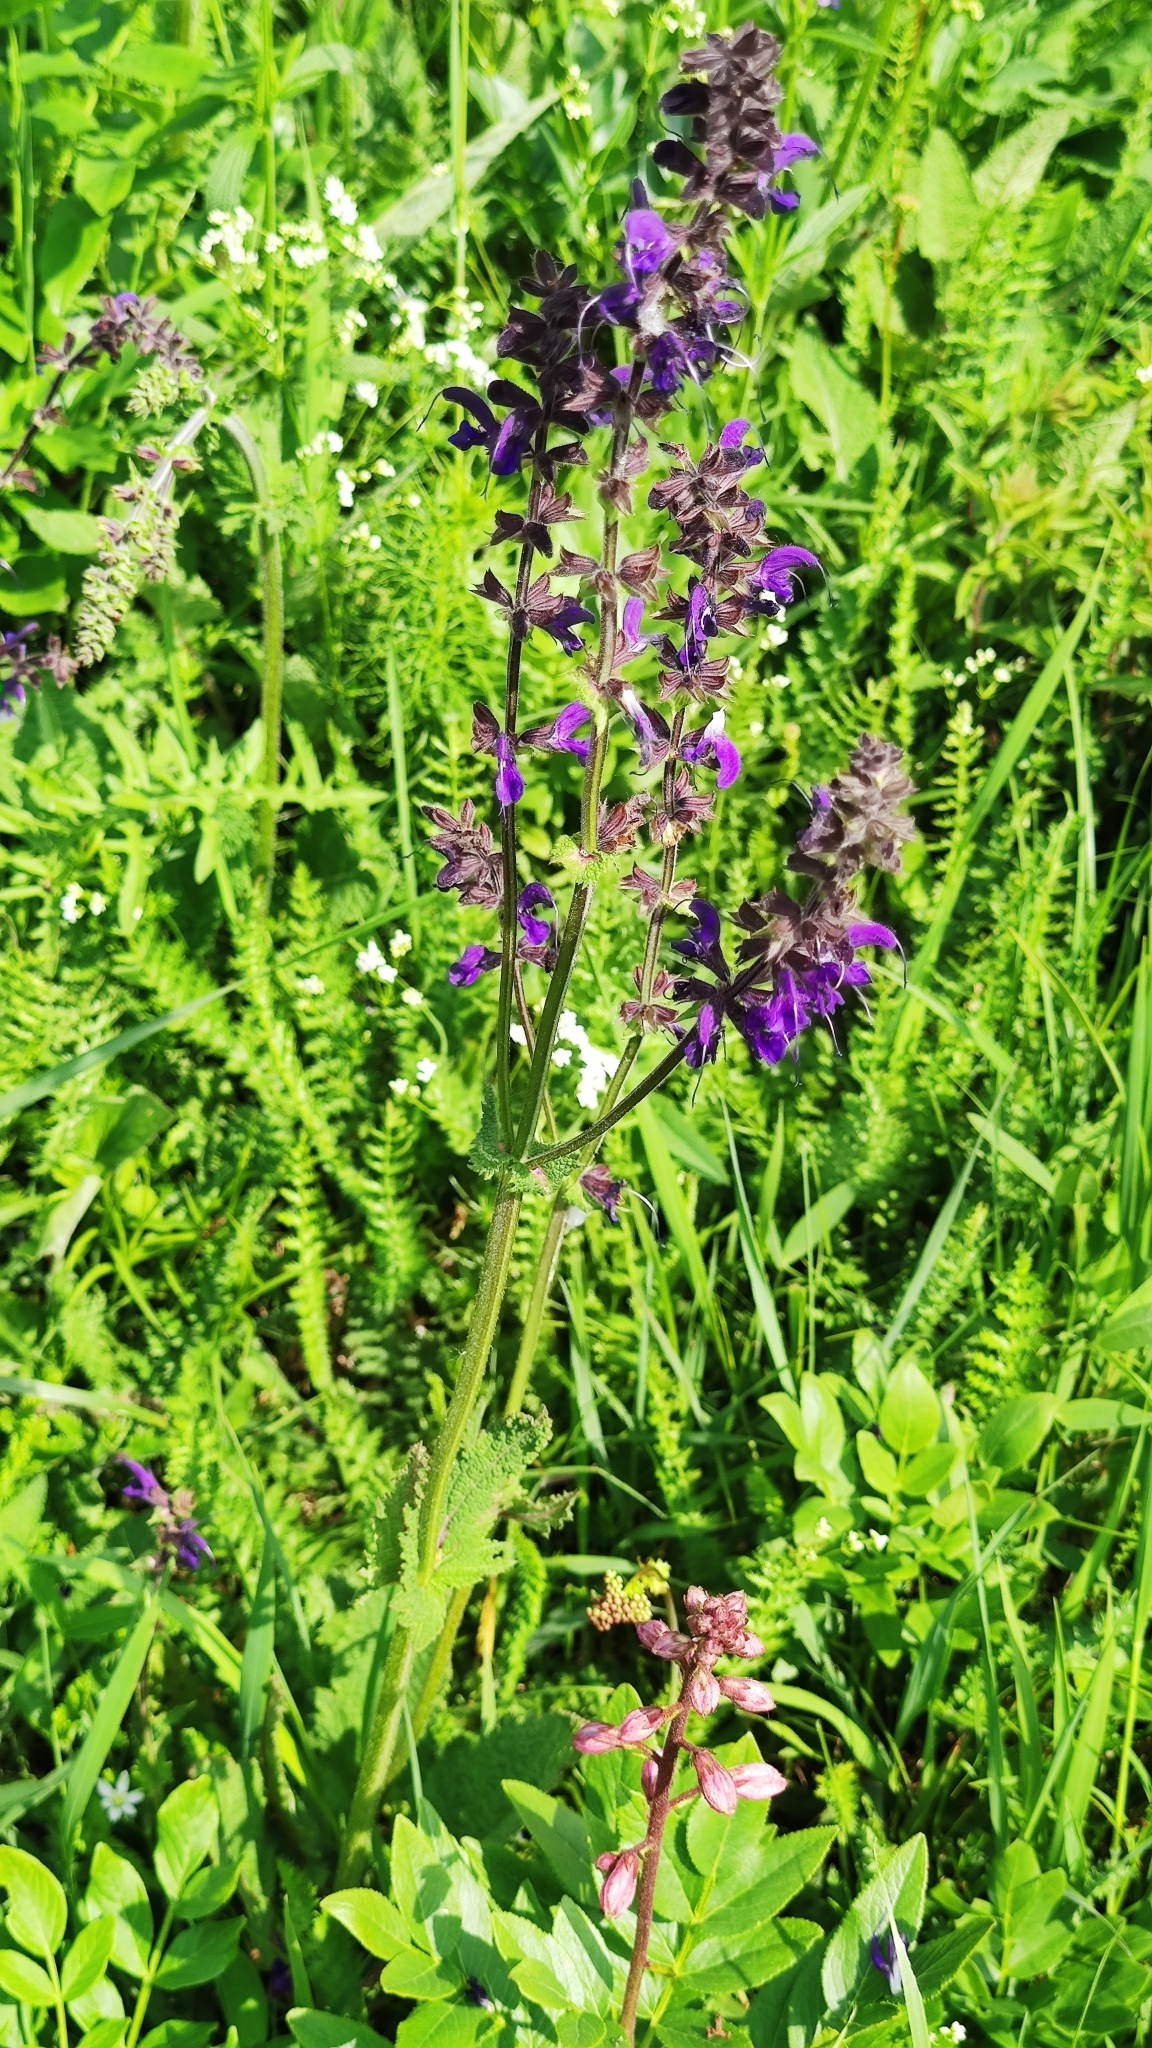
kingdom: Plantae
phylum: Tracheophyta
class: Magnoliopsida
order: Lamiales
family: Lamiaceae
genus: Salvia
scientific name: Salvia pratensis
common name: Meadow sage
